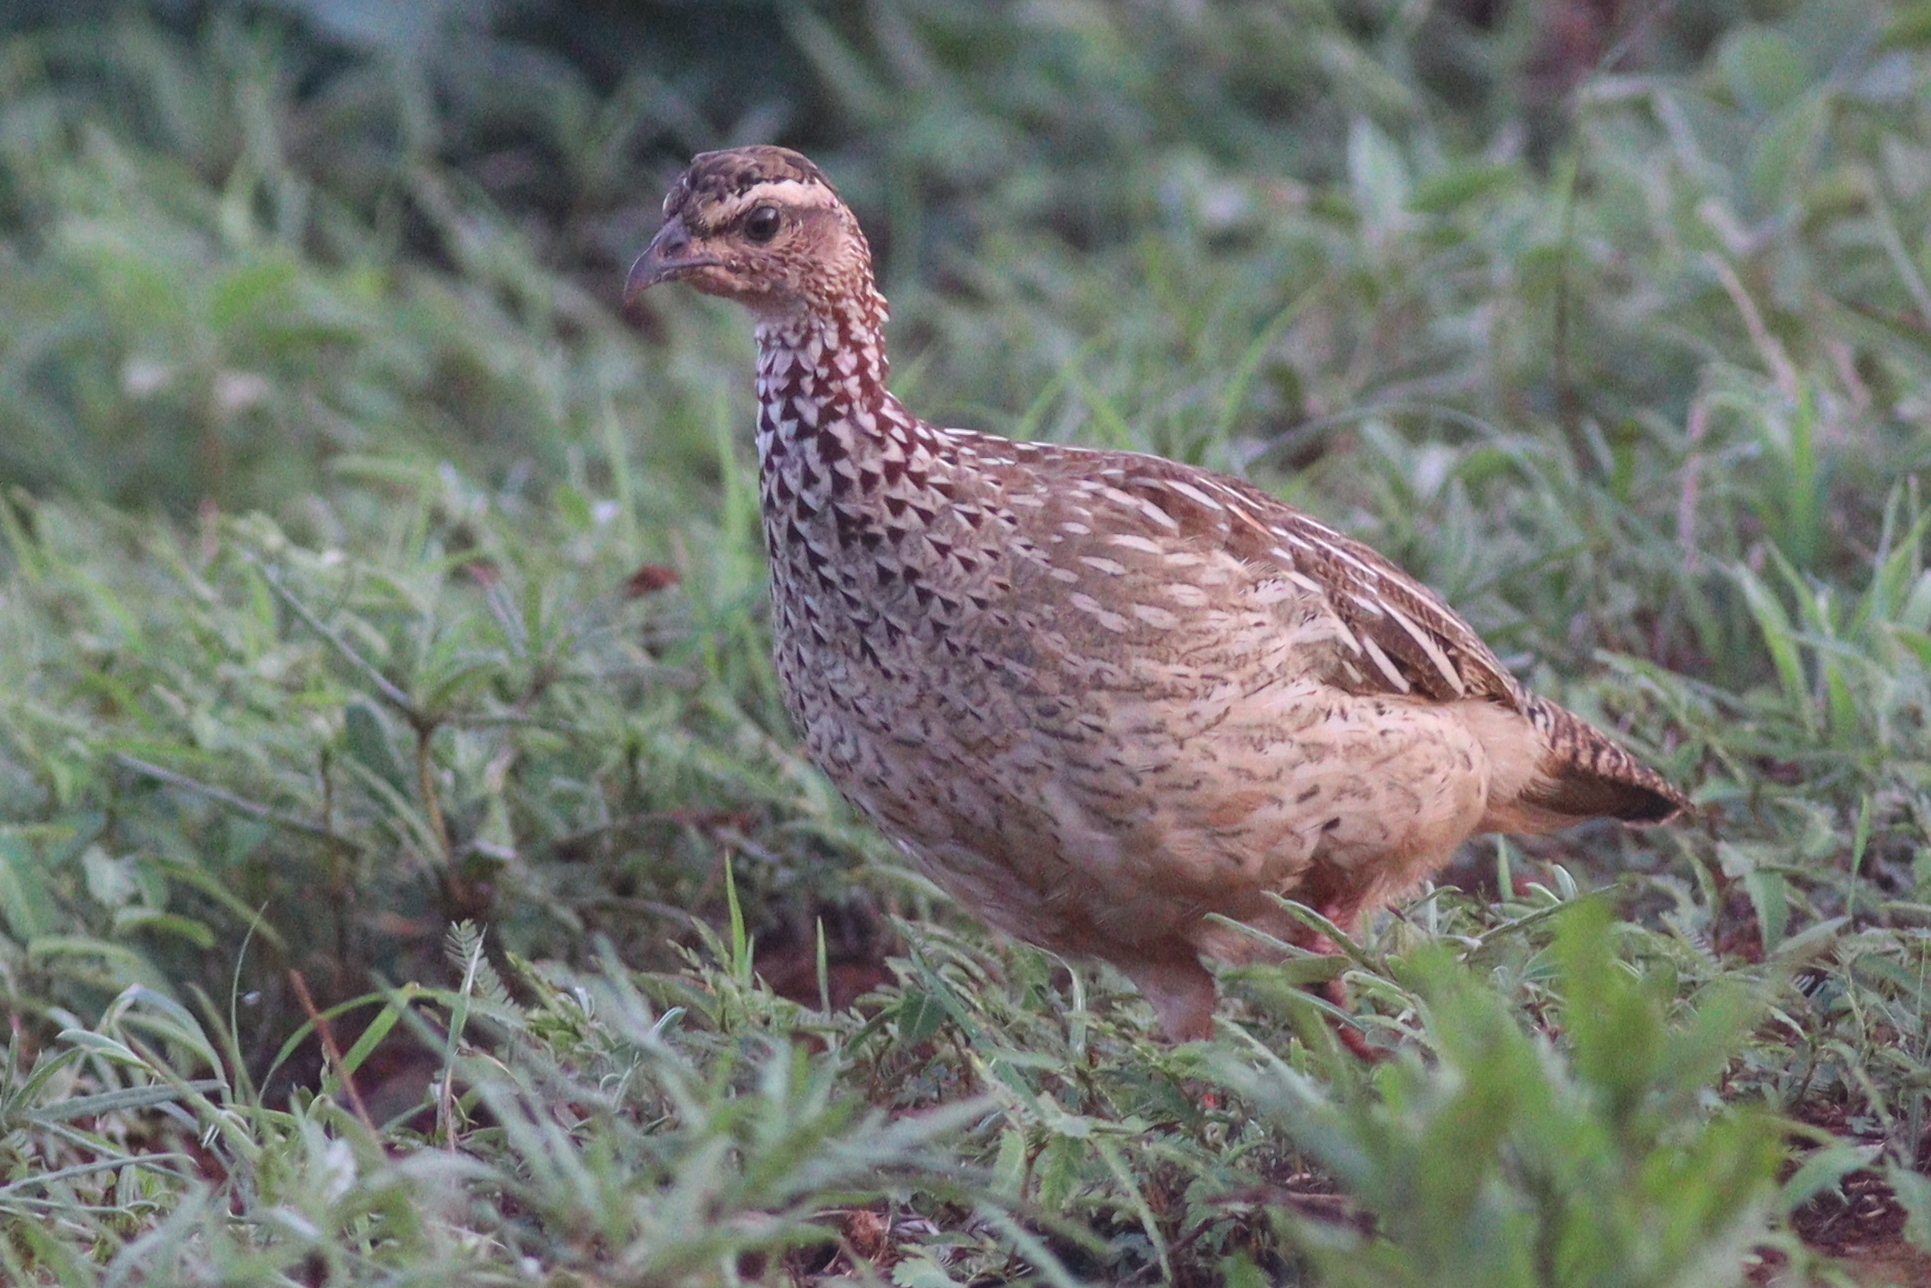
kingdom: Animalia
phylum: Chordata
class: Aves
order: Galliformes
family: Phasianidae
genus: Ortygornis
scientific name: Ortygornis sephaena
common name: Crested francolin
